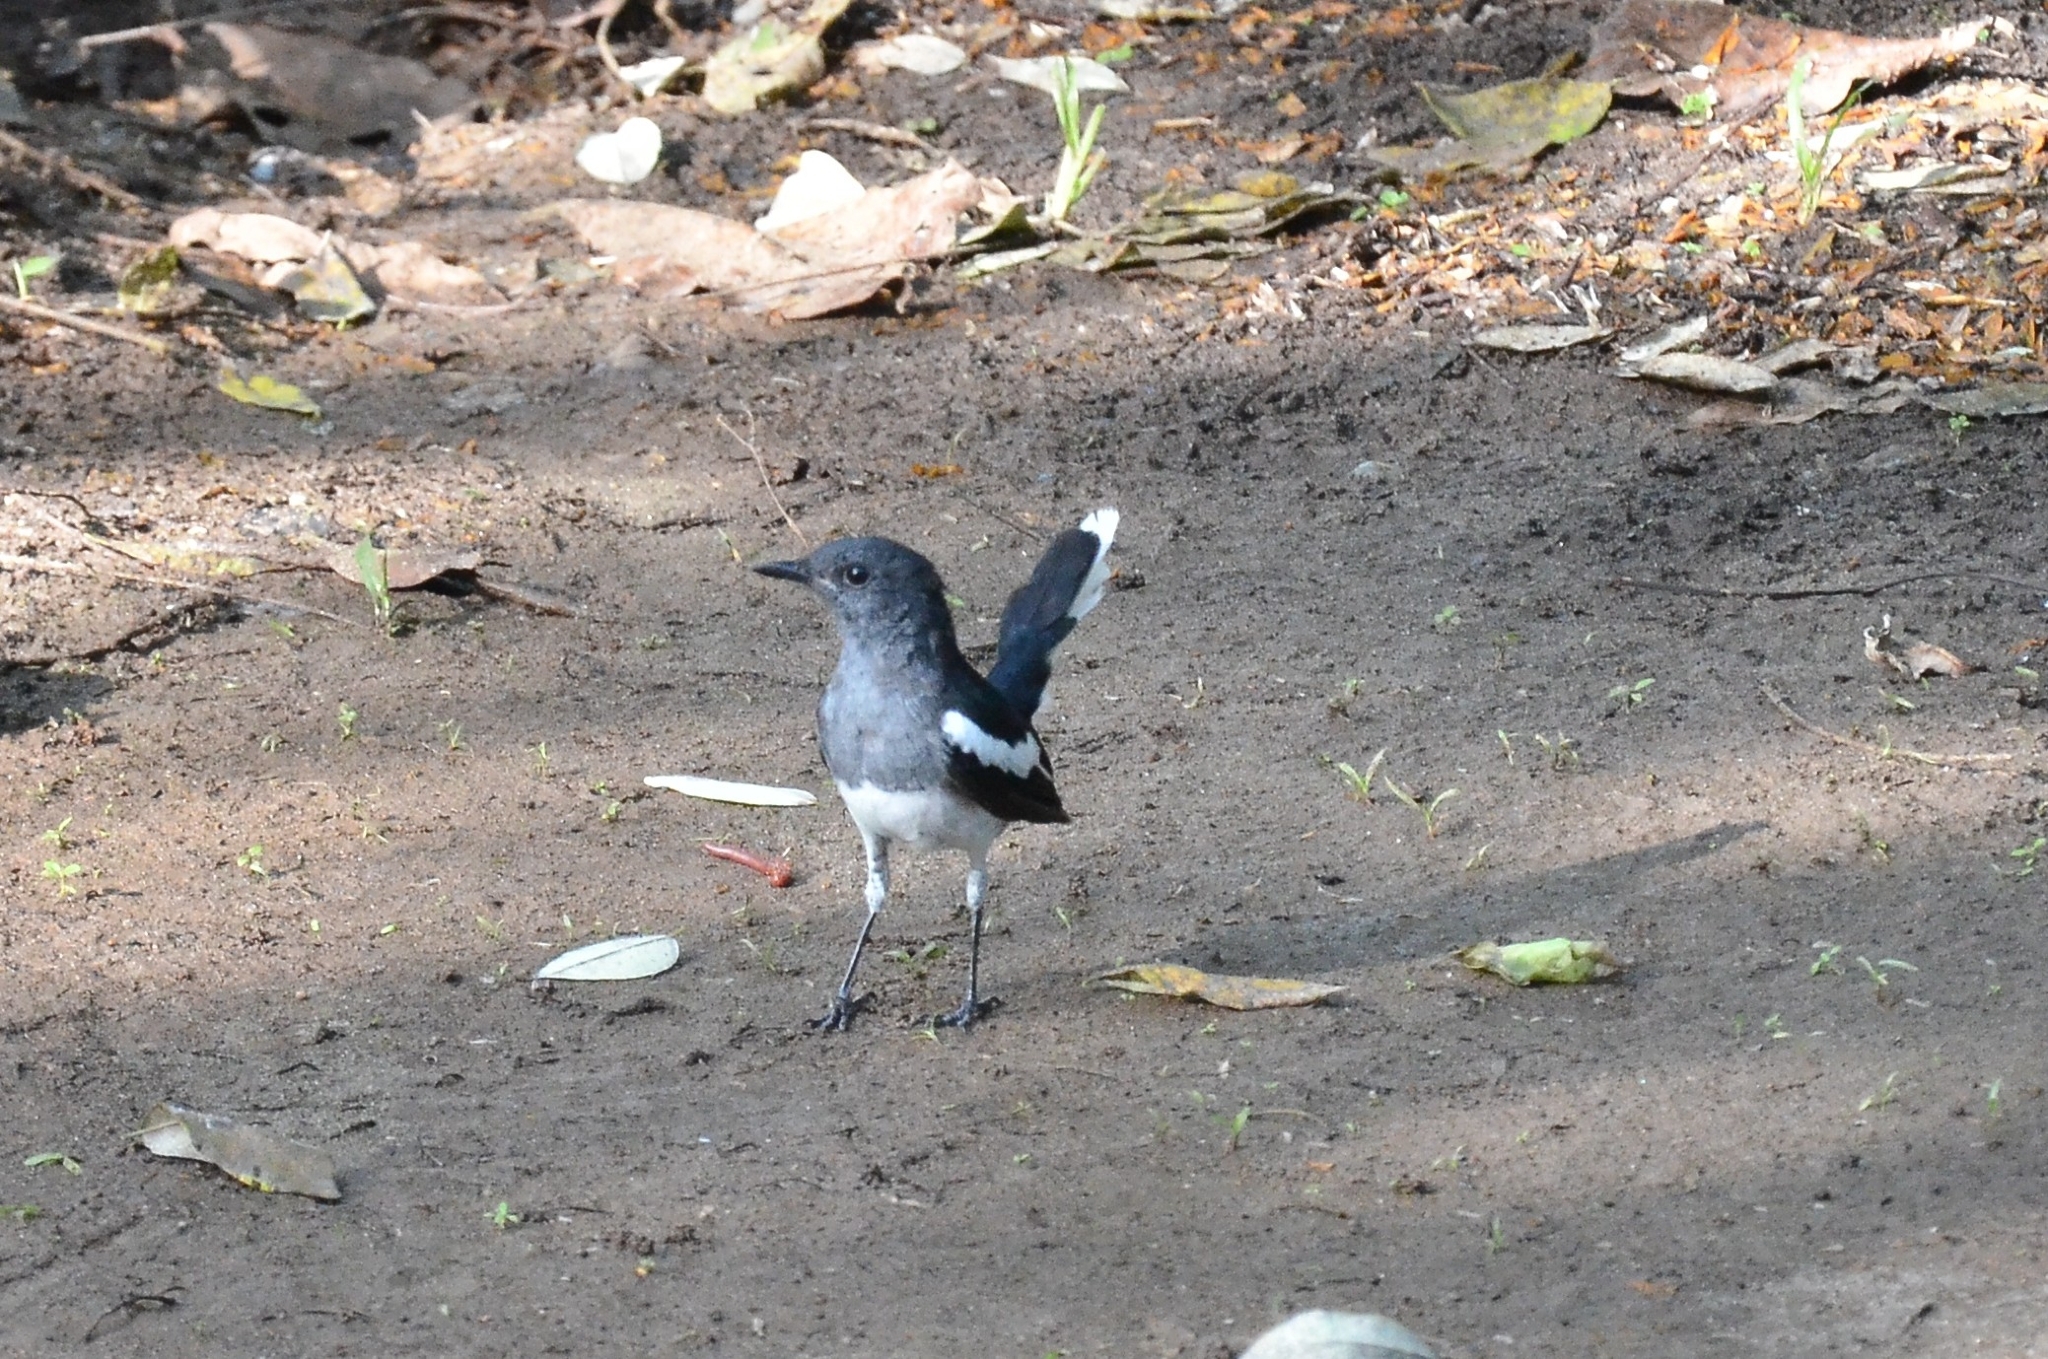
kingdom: Animalia
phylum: Chordata
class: Aves
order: Passeriformes
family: Muscicapidae
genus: Copsychus
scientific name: Copsychus saularis
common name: Oriental magpie-robin
